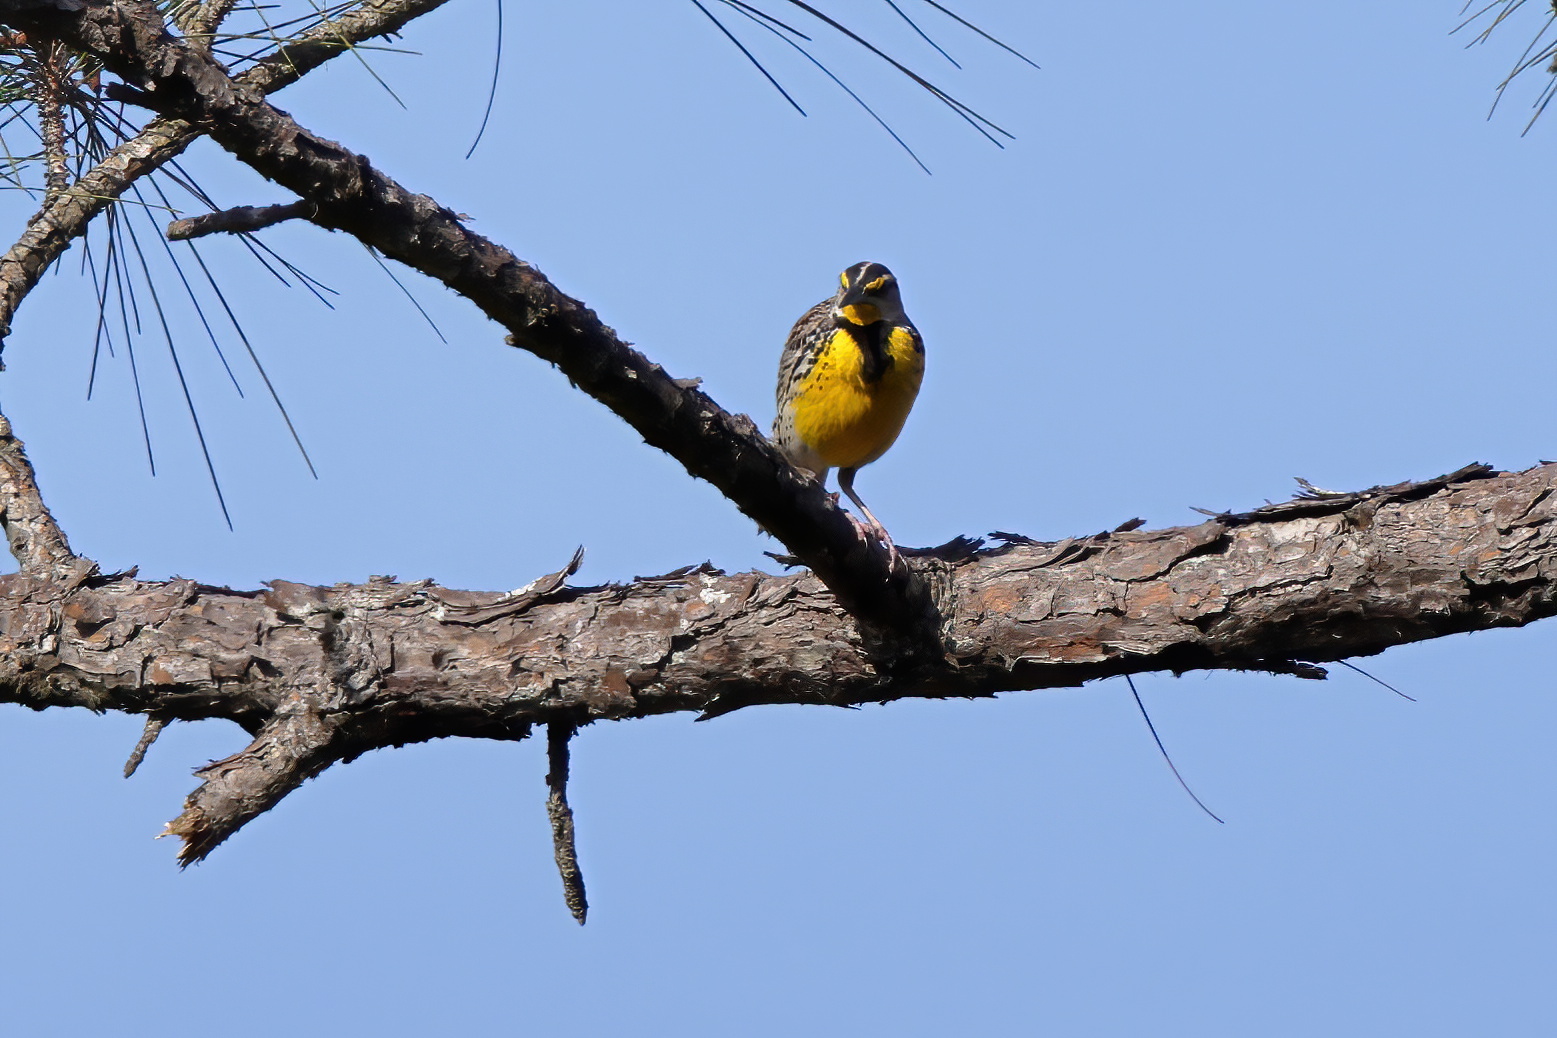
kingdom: Animalia
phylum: Chordata
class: Aves
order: Passeriformes
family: Icteridae
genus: Sturnella
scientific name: Sturnella magna
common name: Eastern meadowlark
